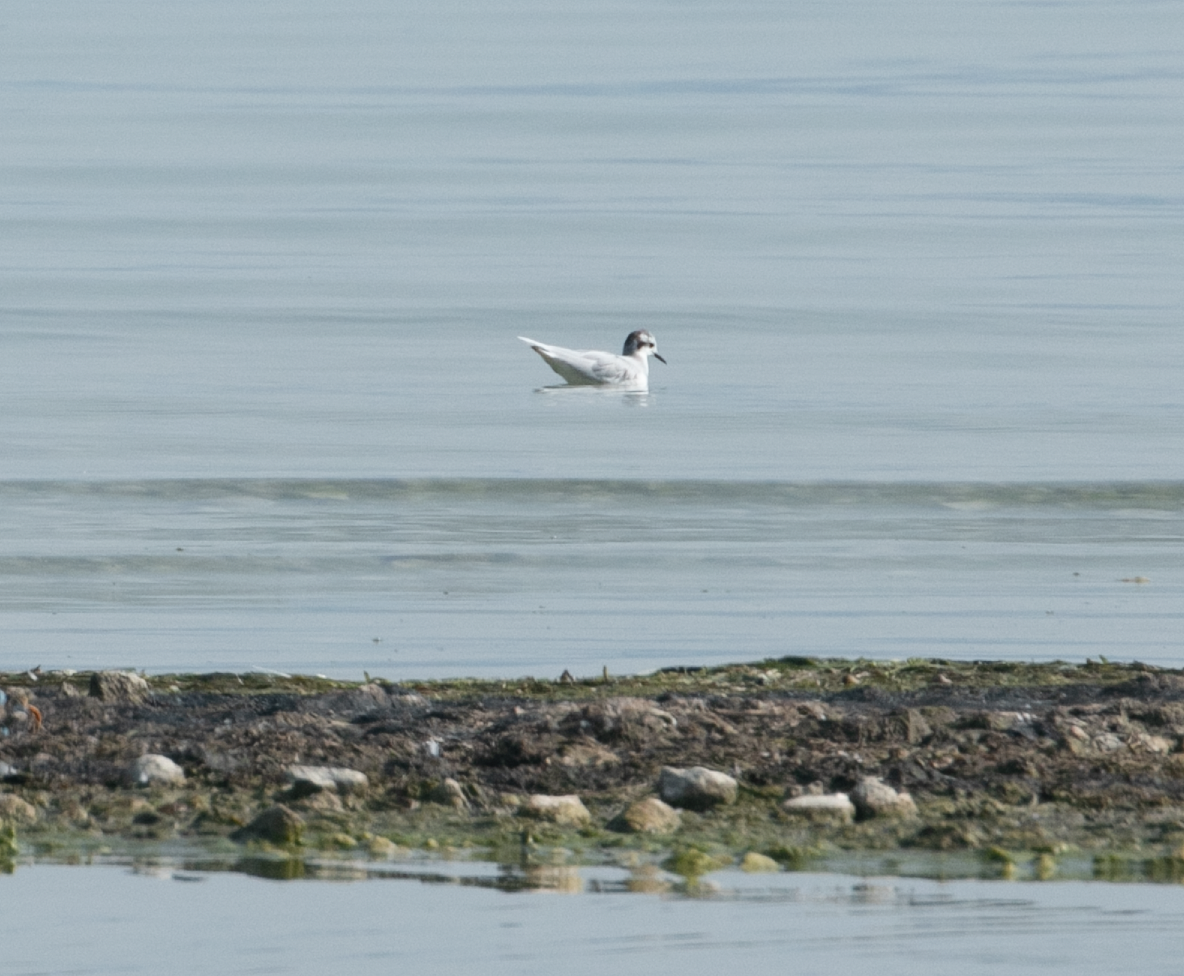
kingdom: Animalia
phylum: Chordata
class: Aves
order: Charadriiformes
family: Laridae
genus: Hydrocoloeus
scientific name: Hydrocoloeus minutus
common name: Little gull
